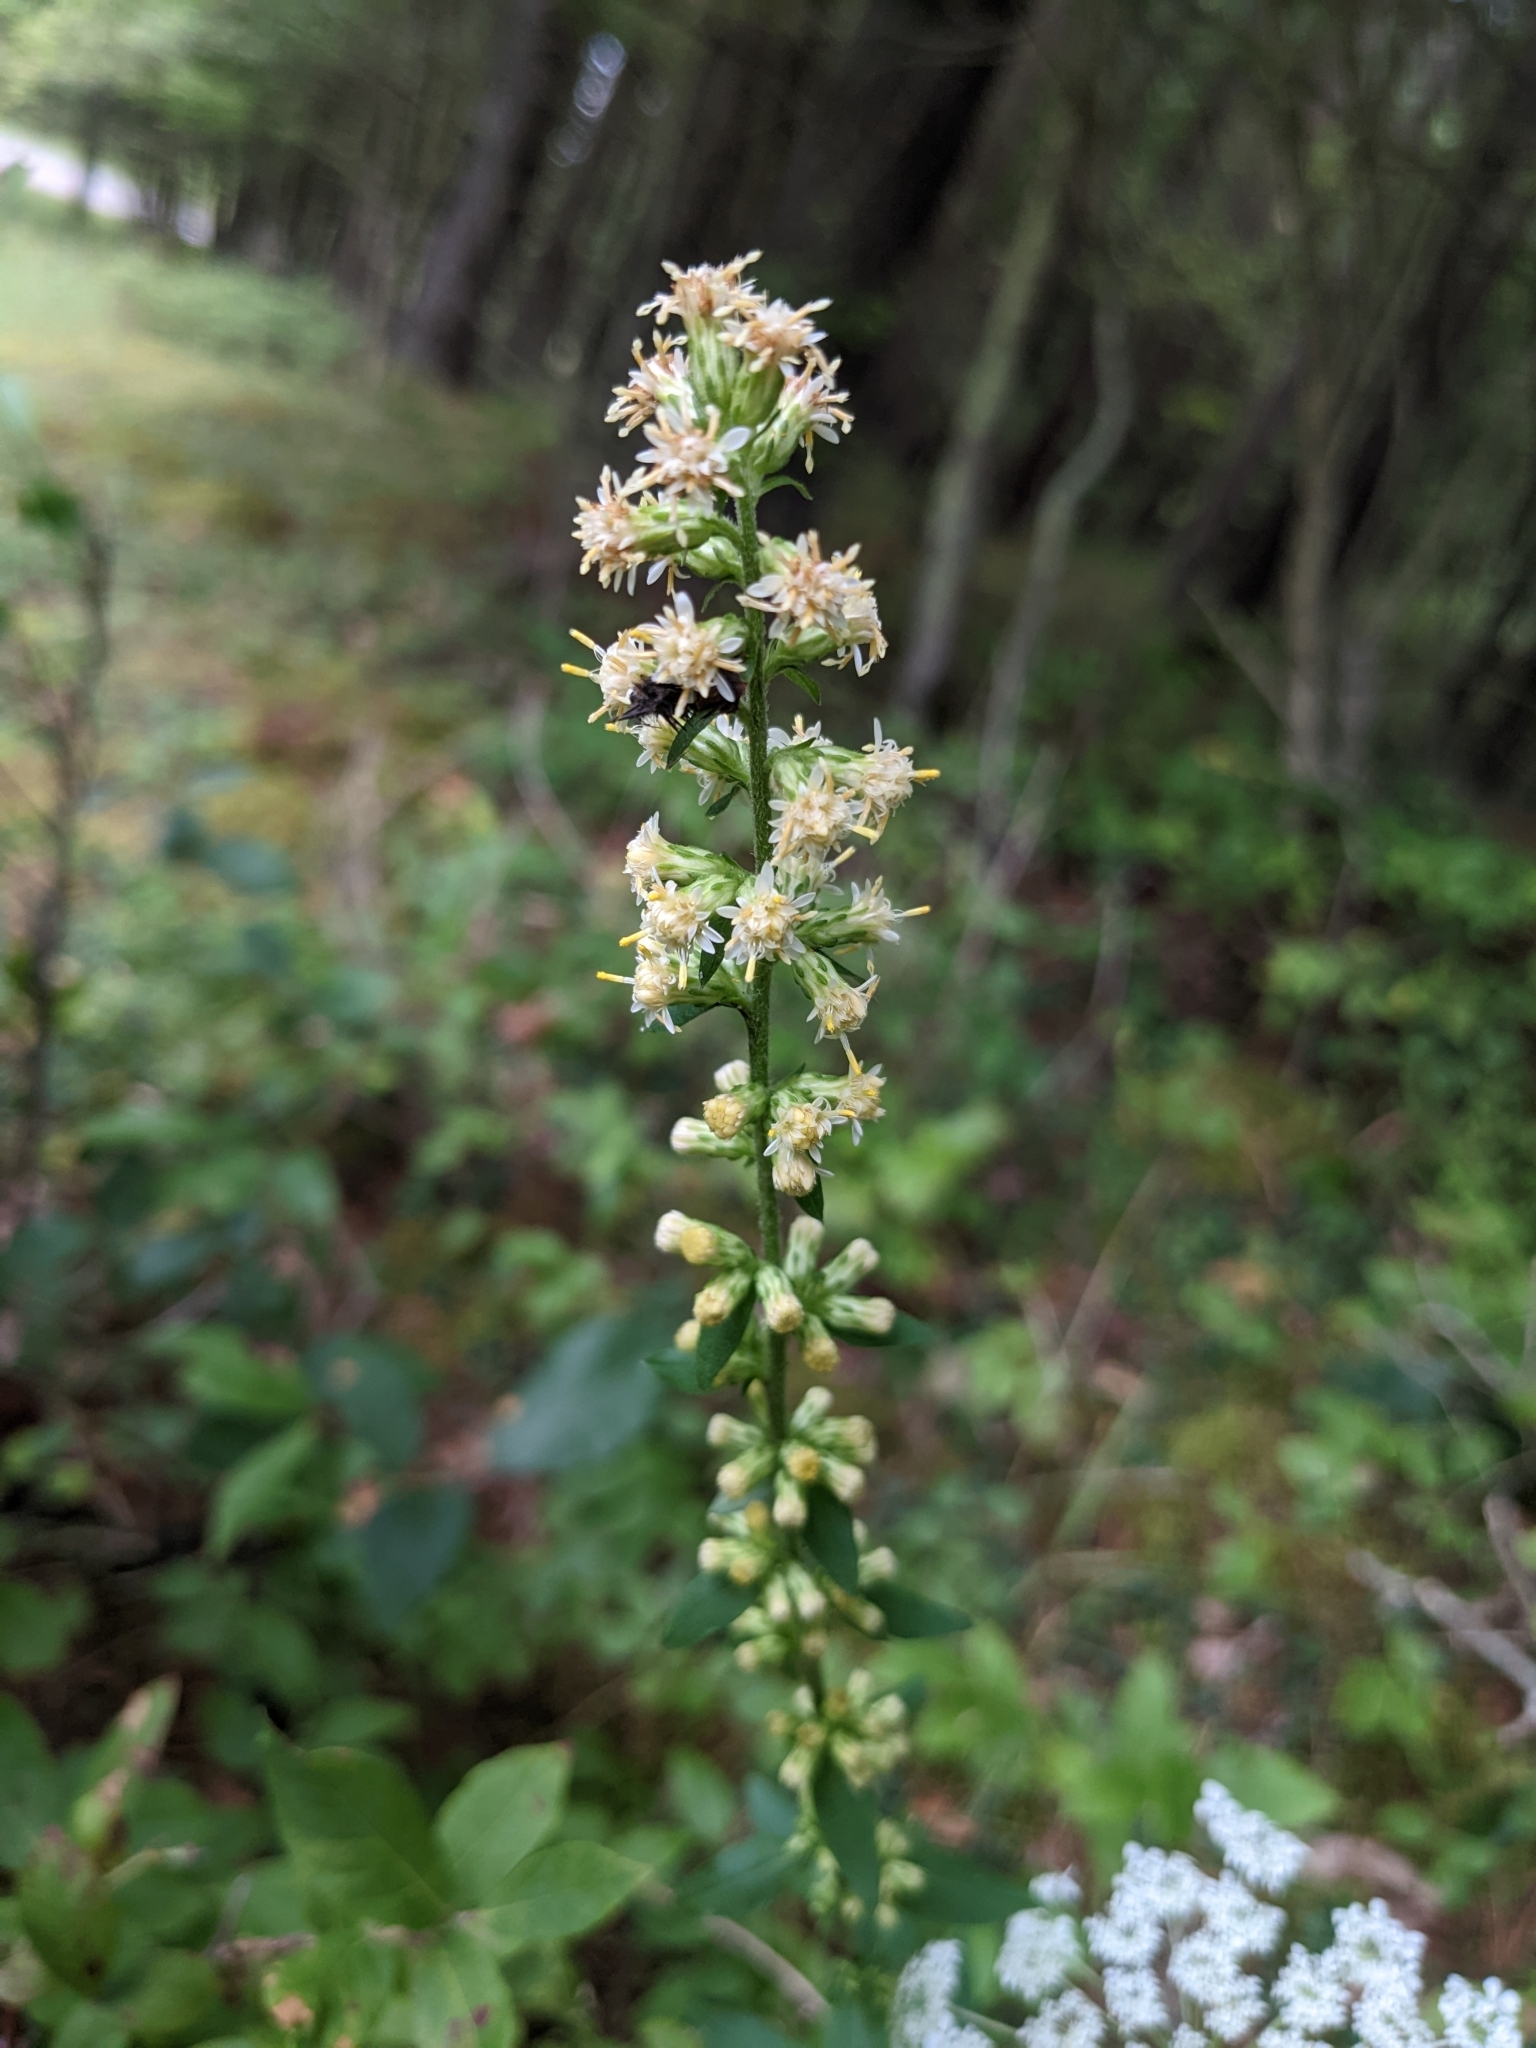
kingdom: Plantae
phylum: Tracheophyta
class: Magnoliopsida
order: Asterales
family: Asteraceae
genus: Solidago
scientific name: Solidago bicolor
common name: Silverrod
